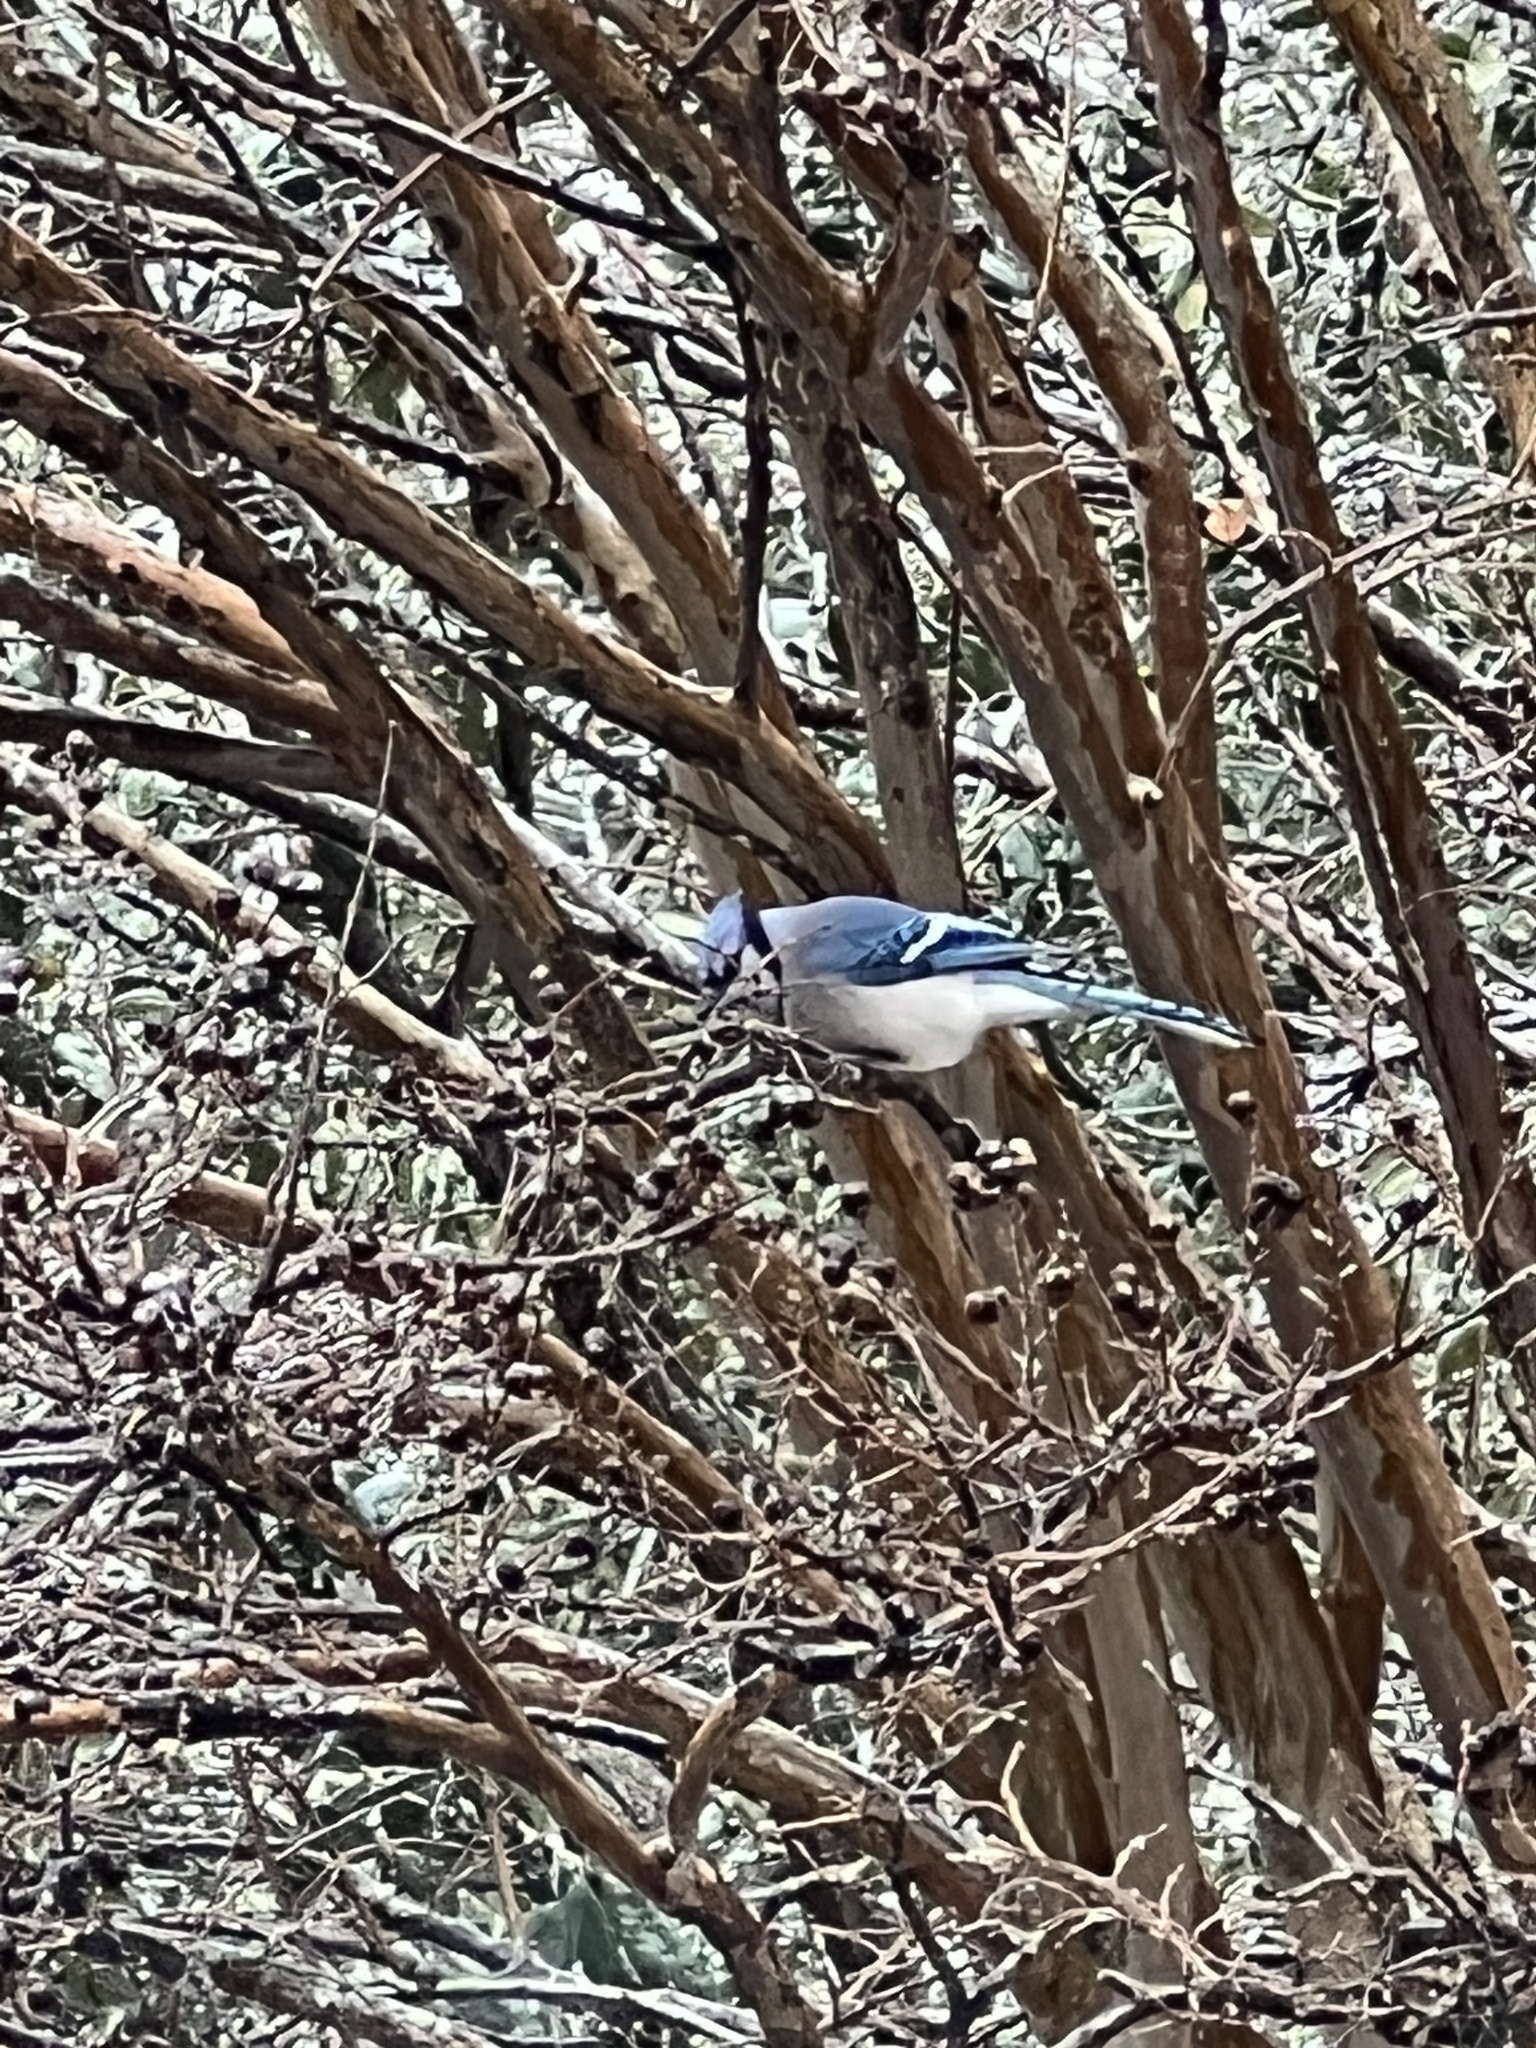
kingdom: Animalia
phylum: Chordata
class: Aves
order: Passeriformes
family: Corvidae
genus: Cyanocitta
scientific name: Cyanocitta cristata
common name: Blue jay
